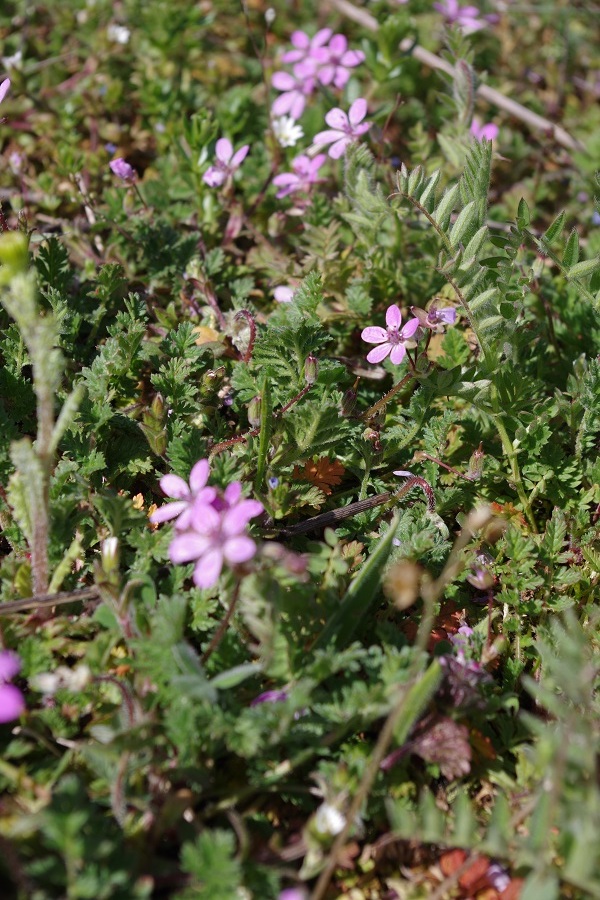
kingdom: Plantae
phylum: Tracheophyta
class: Magnoliopsida
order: Geraniales
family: Geraniaceae
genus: Erodium
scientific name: Erodium cicutarium
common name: Common stork's-bill
